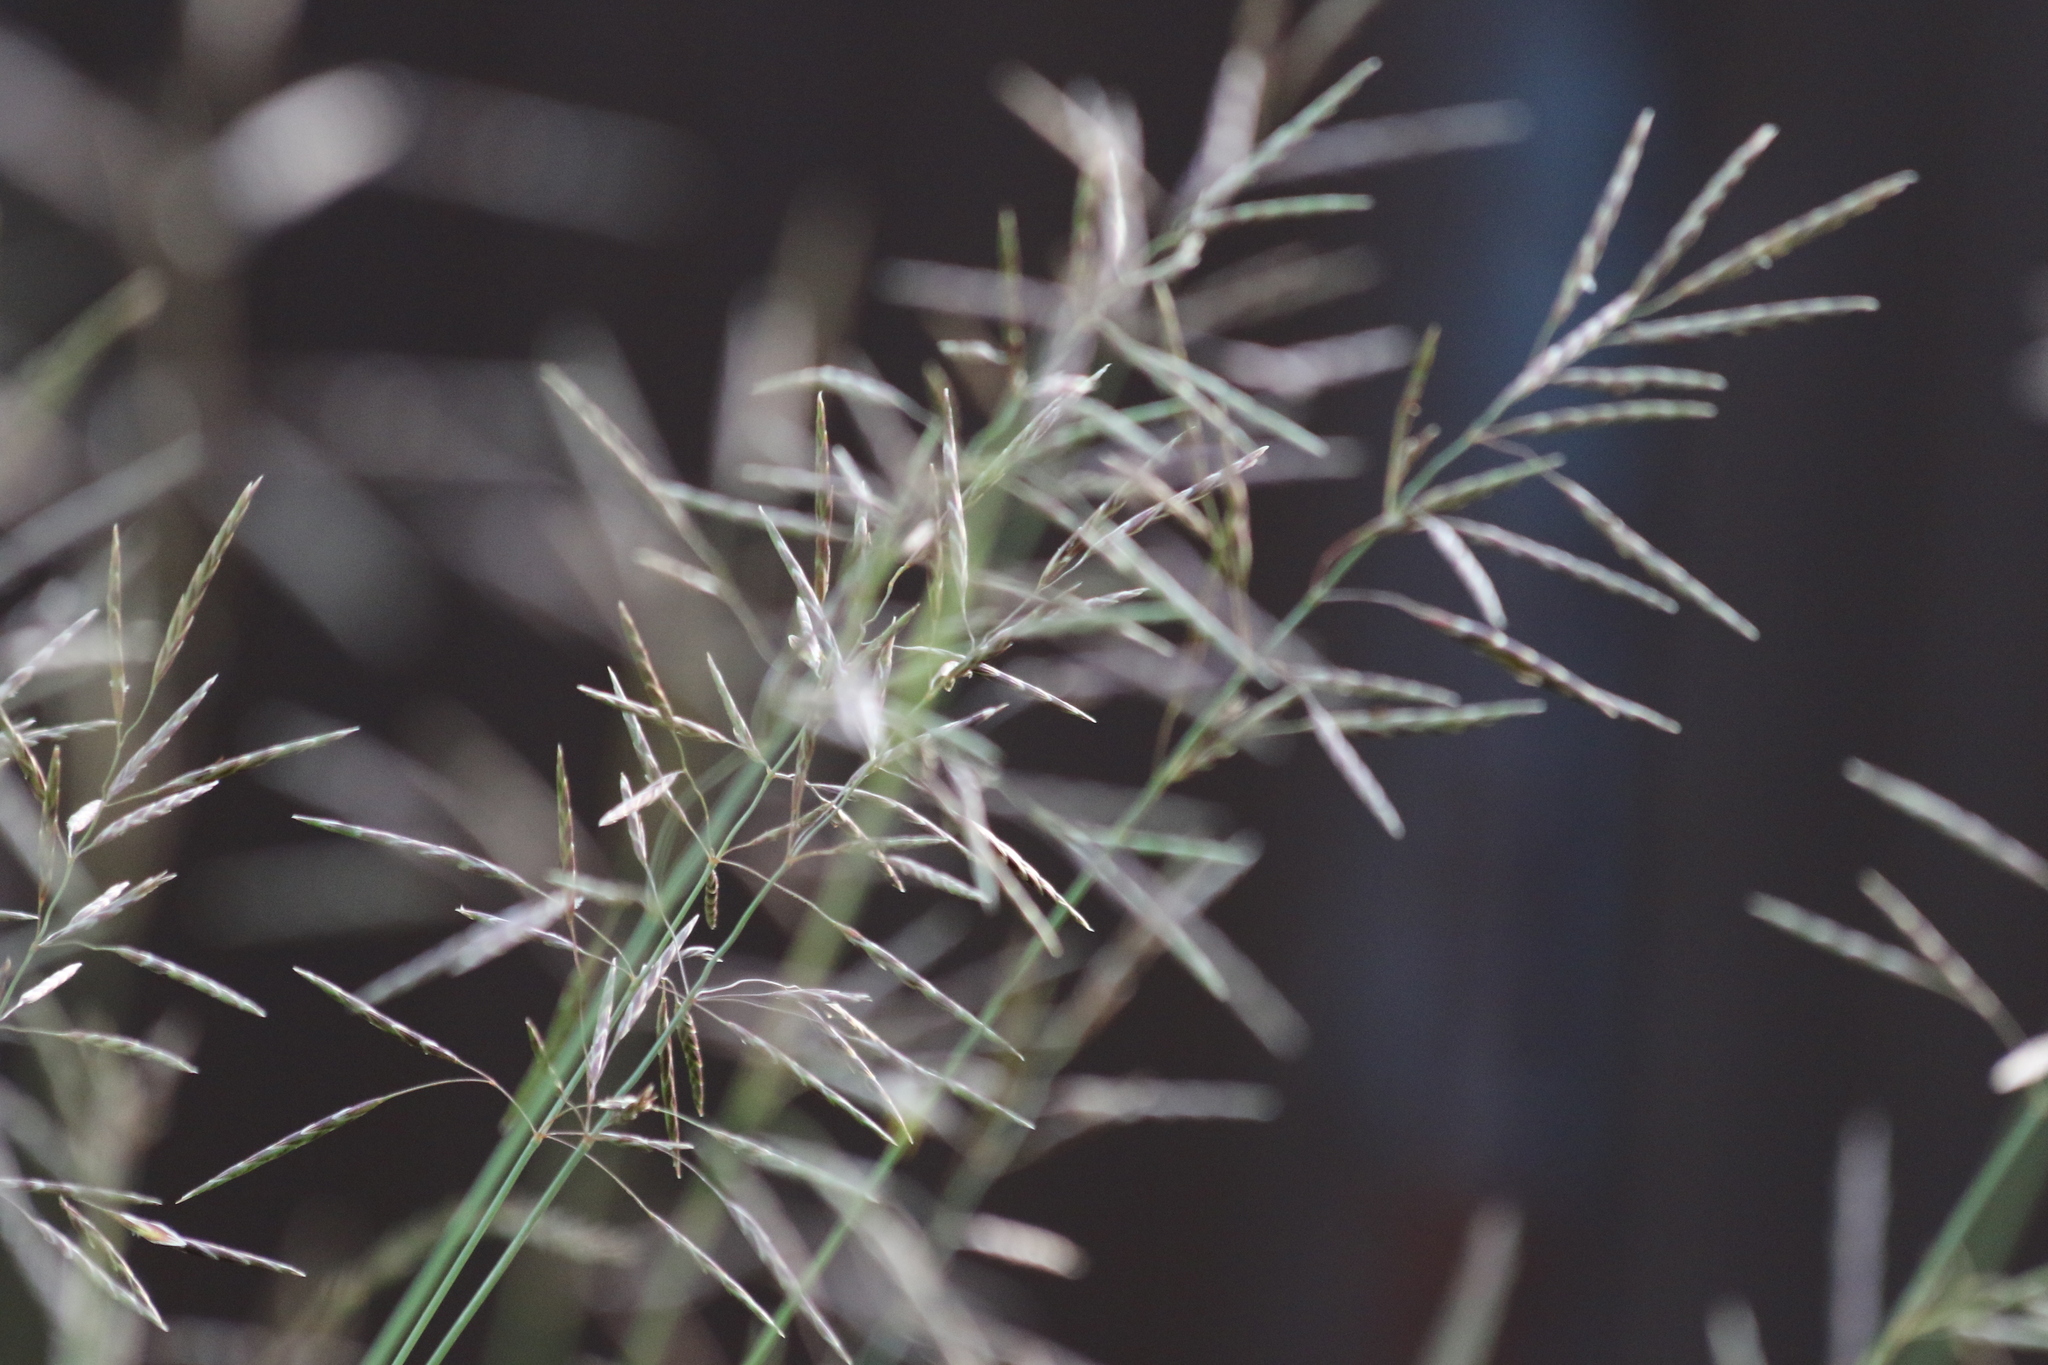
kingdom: Plantae
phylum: Tracheophyta
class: Liliopsida
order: Poales
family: Poaceae
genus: Bromus
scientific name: Bromus inermis
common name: Smooth brome
